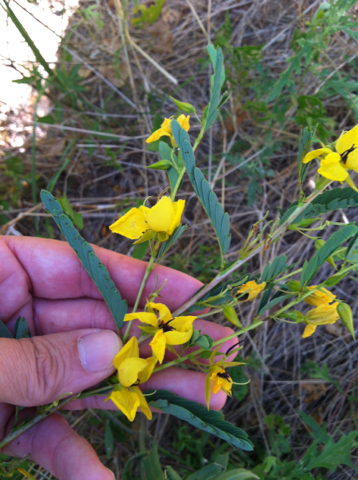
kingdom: Plantae
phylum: Tracheophyta
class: Magnoliopsida
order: Fabales
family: Fabaceae
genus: Chamaecrista
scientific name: Chamaecrista fasciculata
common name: Golden cassia
